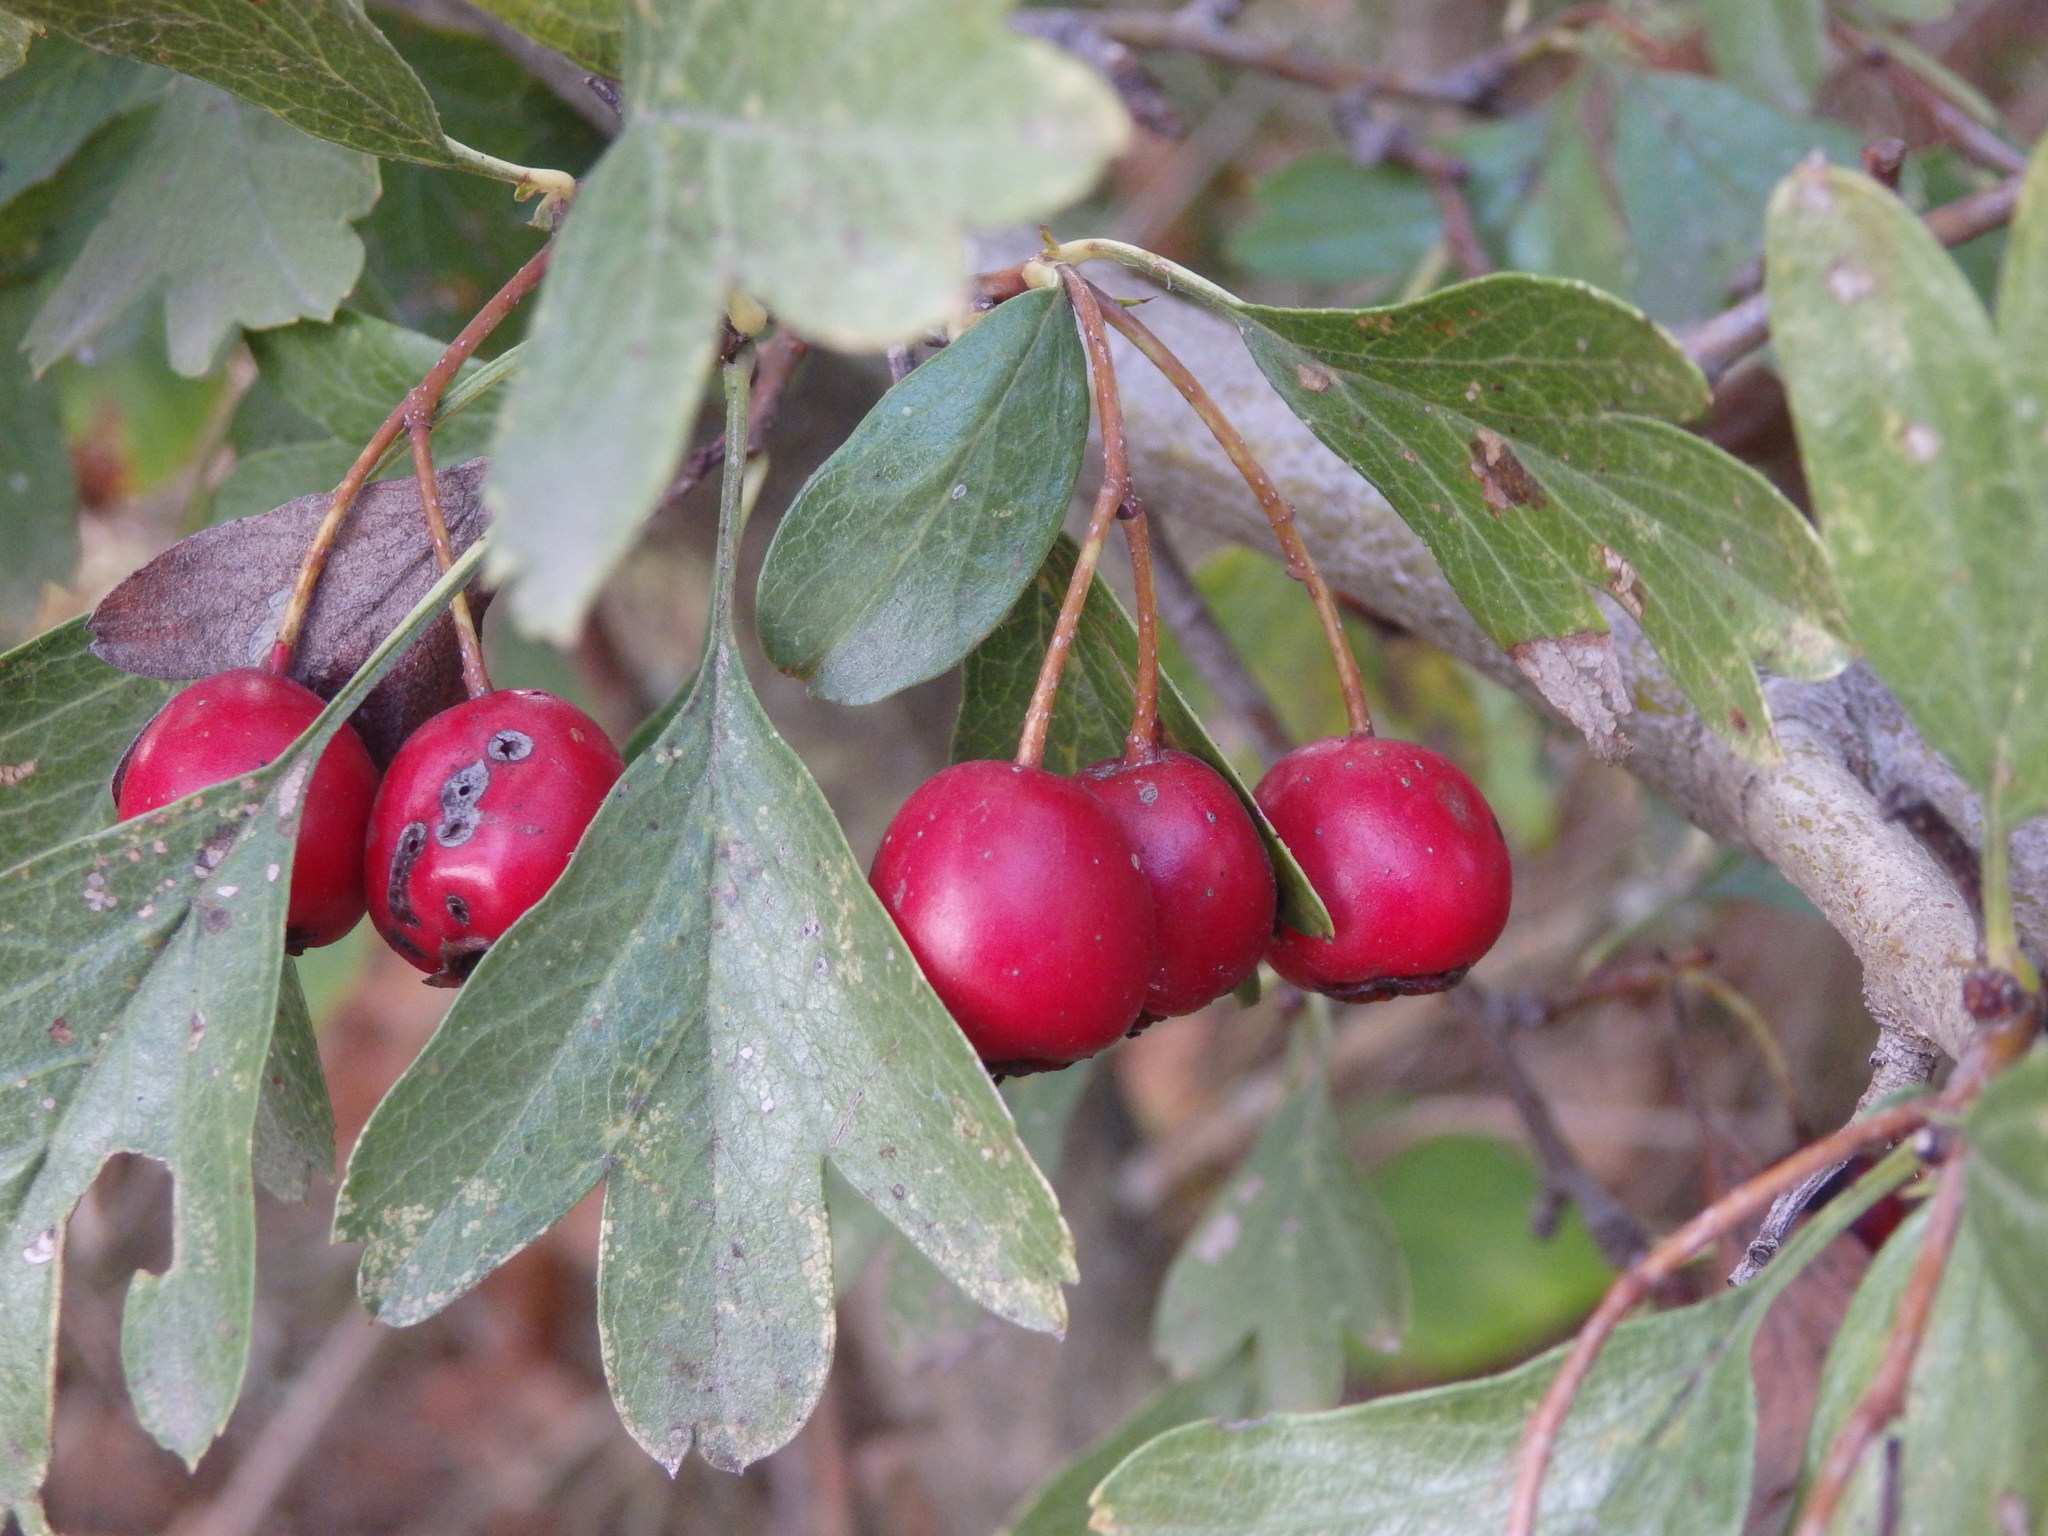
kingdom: Plantae
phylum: Tracheophyta
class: Magnoliopsida
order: Rosales
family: Rosaceae
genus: Crataegus
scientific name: Crataegus monogyna
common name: Hawthorn
